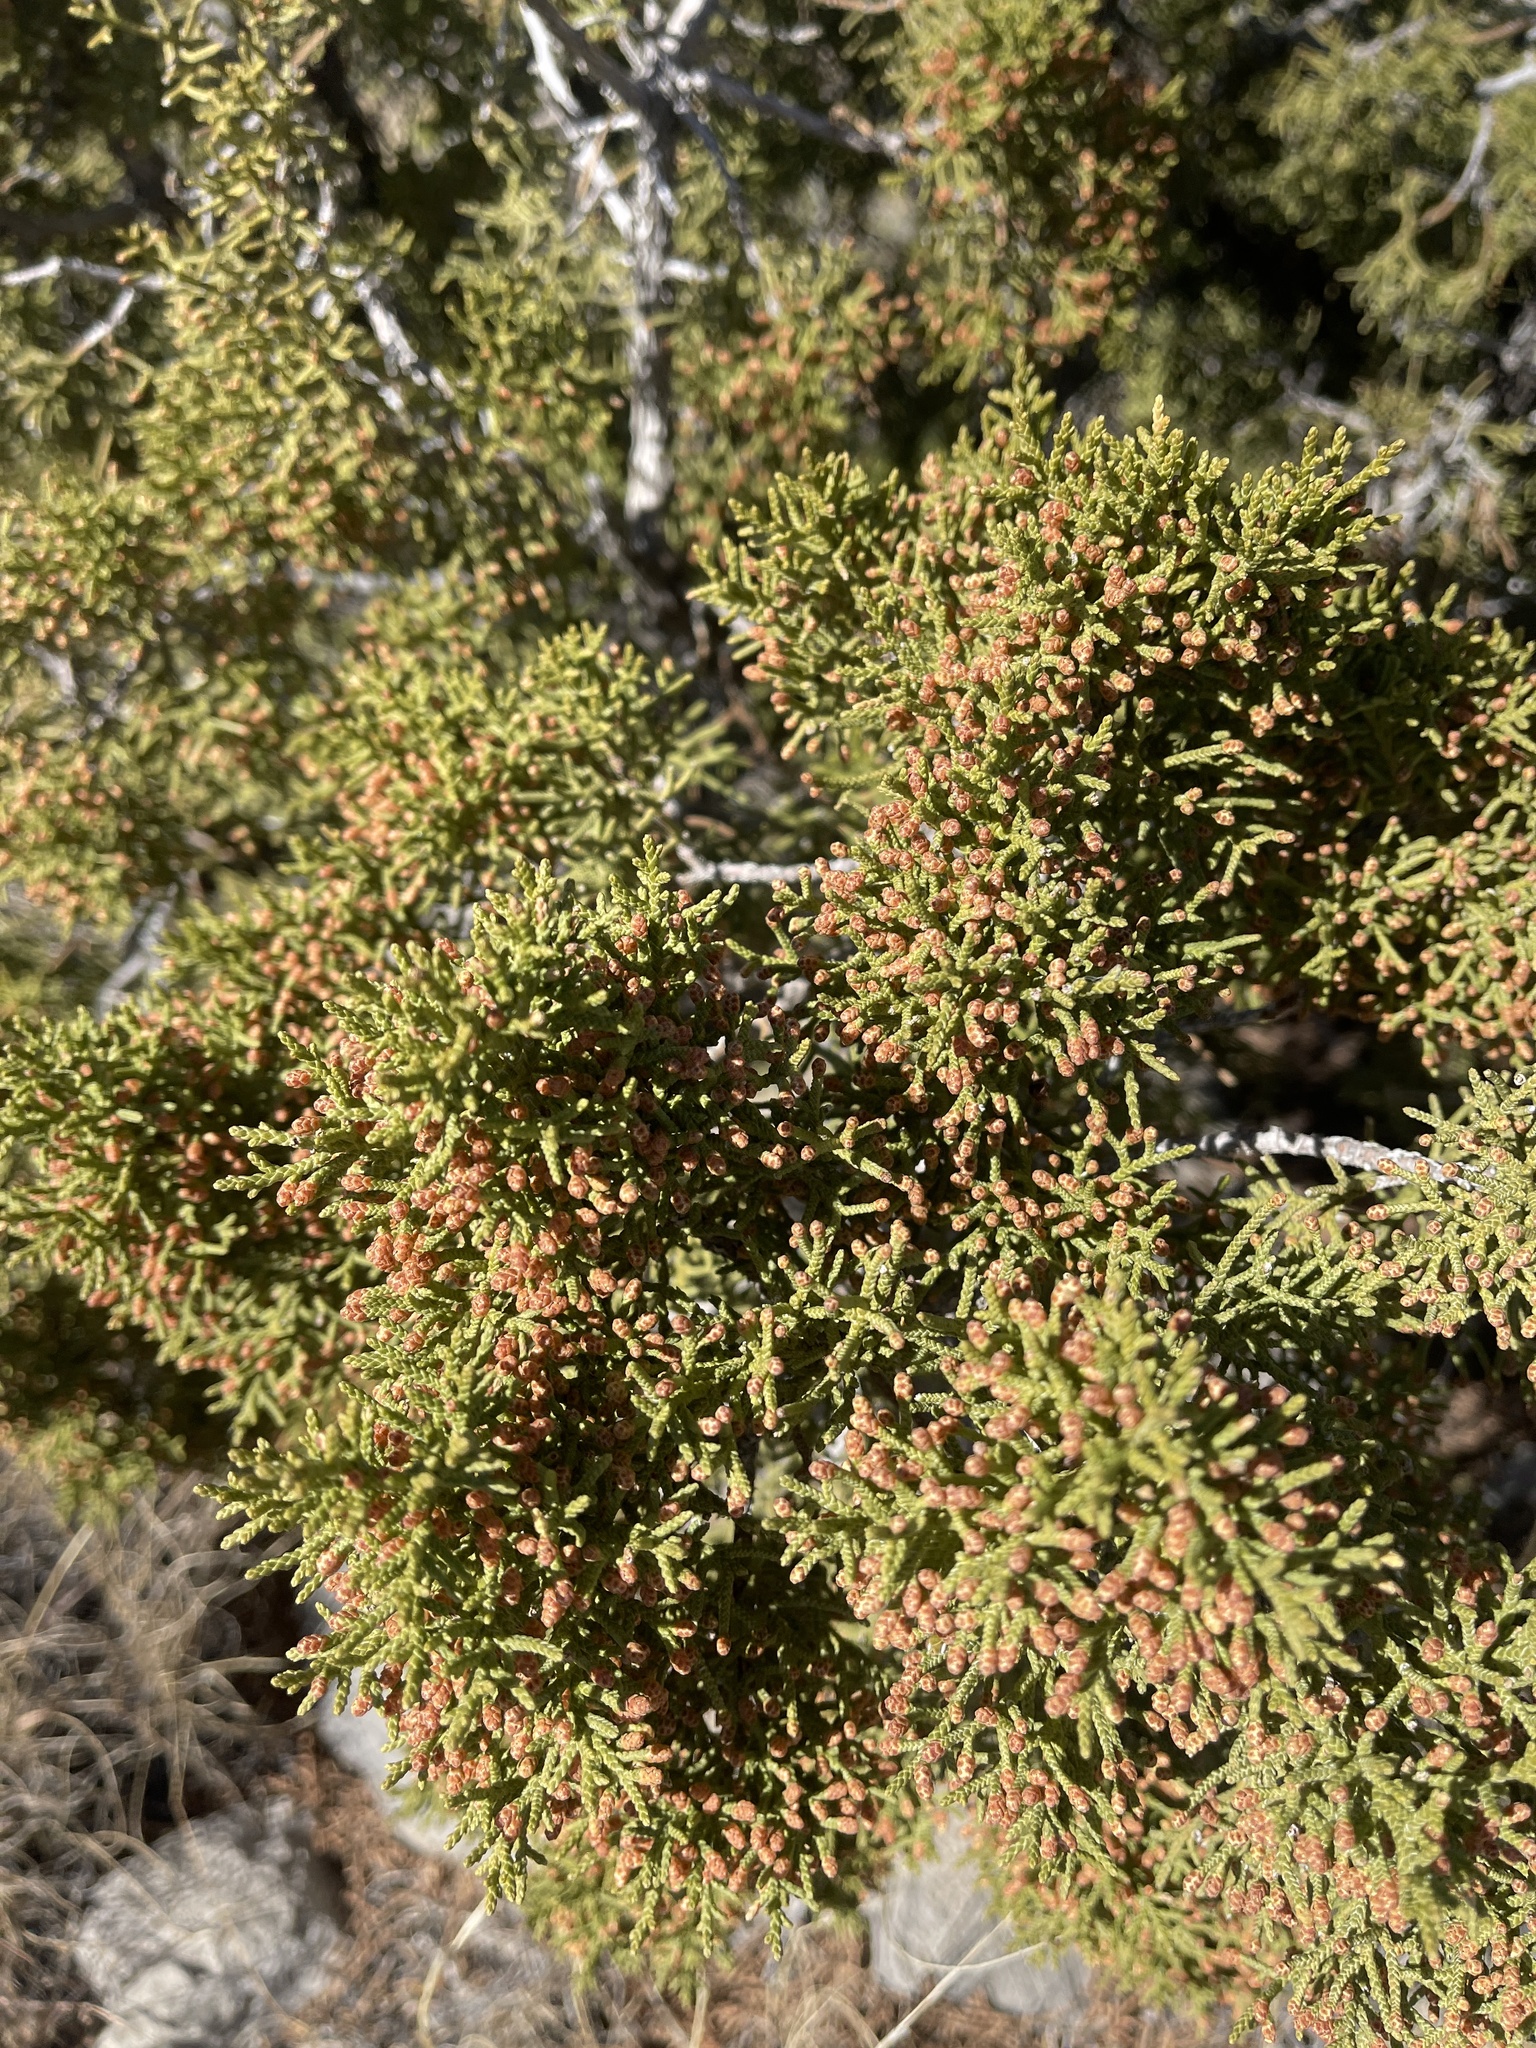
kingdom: Plantae
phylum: Tracheophyta
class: Pinopsida
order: Pinales
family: Cupressaceae
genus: Juniperus
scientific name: Juniperus monosperma
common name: One-seed juniper
